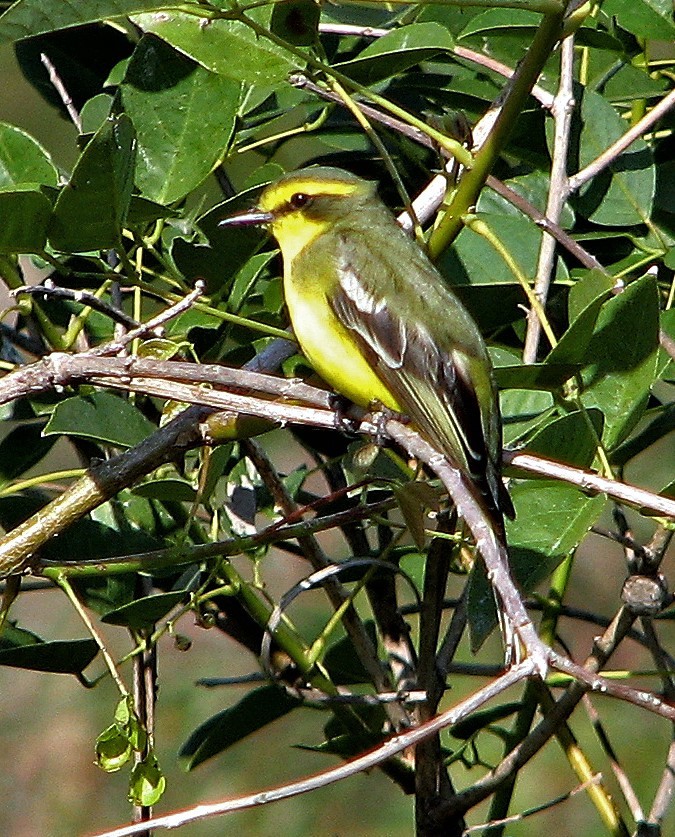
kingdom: Animalia
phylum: Chordata
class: Aves
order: Passeriformes
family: Tyrannidae
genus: Satrapa
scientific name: Satrapa icterophrys
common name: Yellow-browed tyrant
